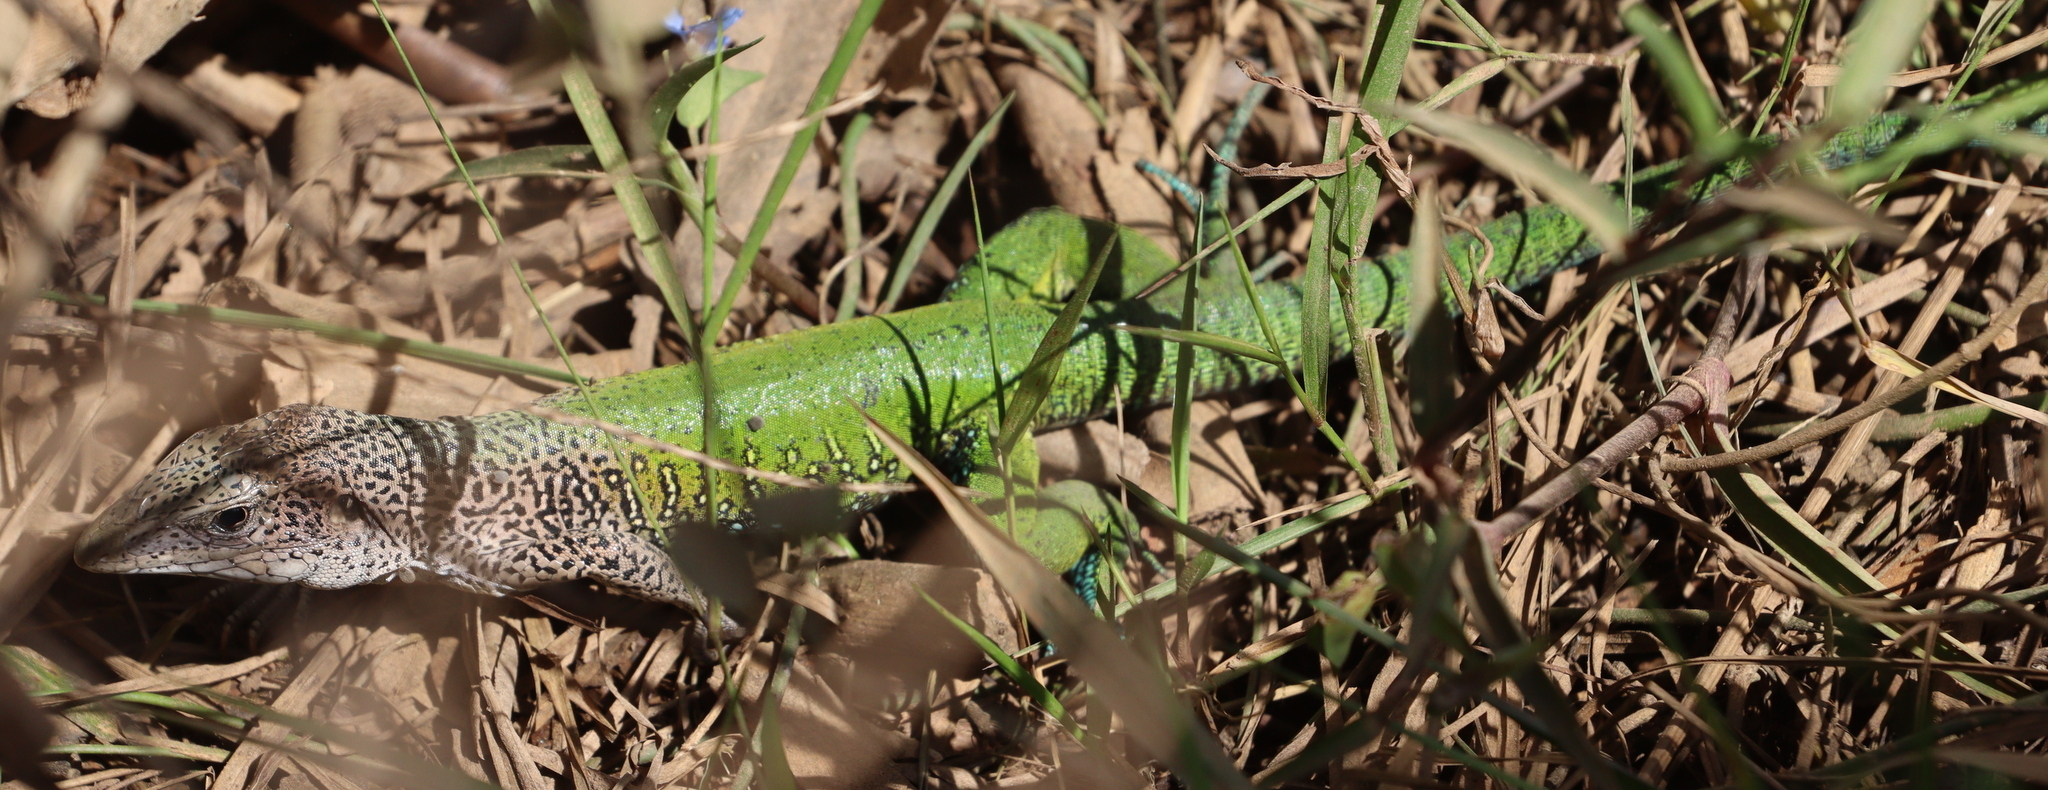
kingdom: Animalia
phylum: Chordata
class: Squamata
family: Teiidae
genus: Ameiva
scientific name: Ameiva ameiva
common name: Giant ameiva
